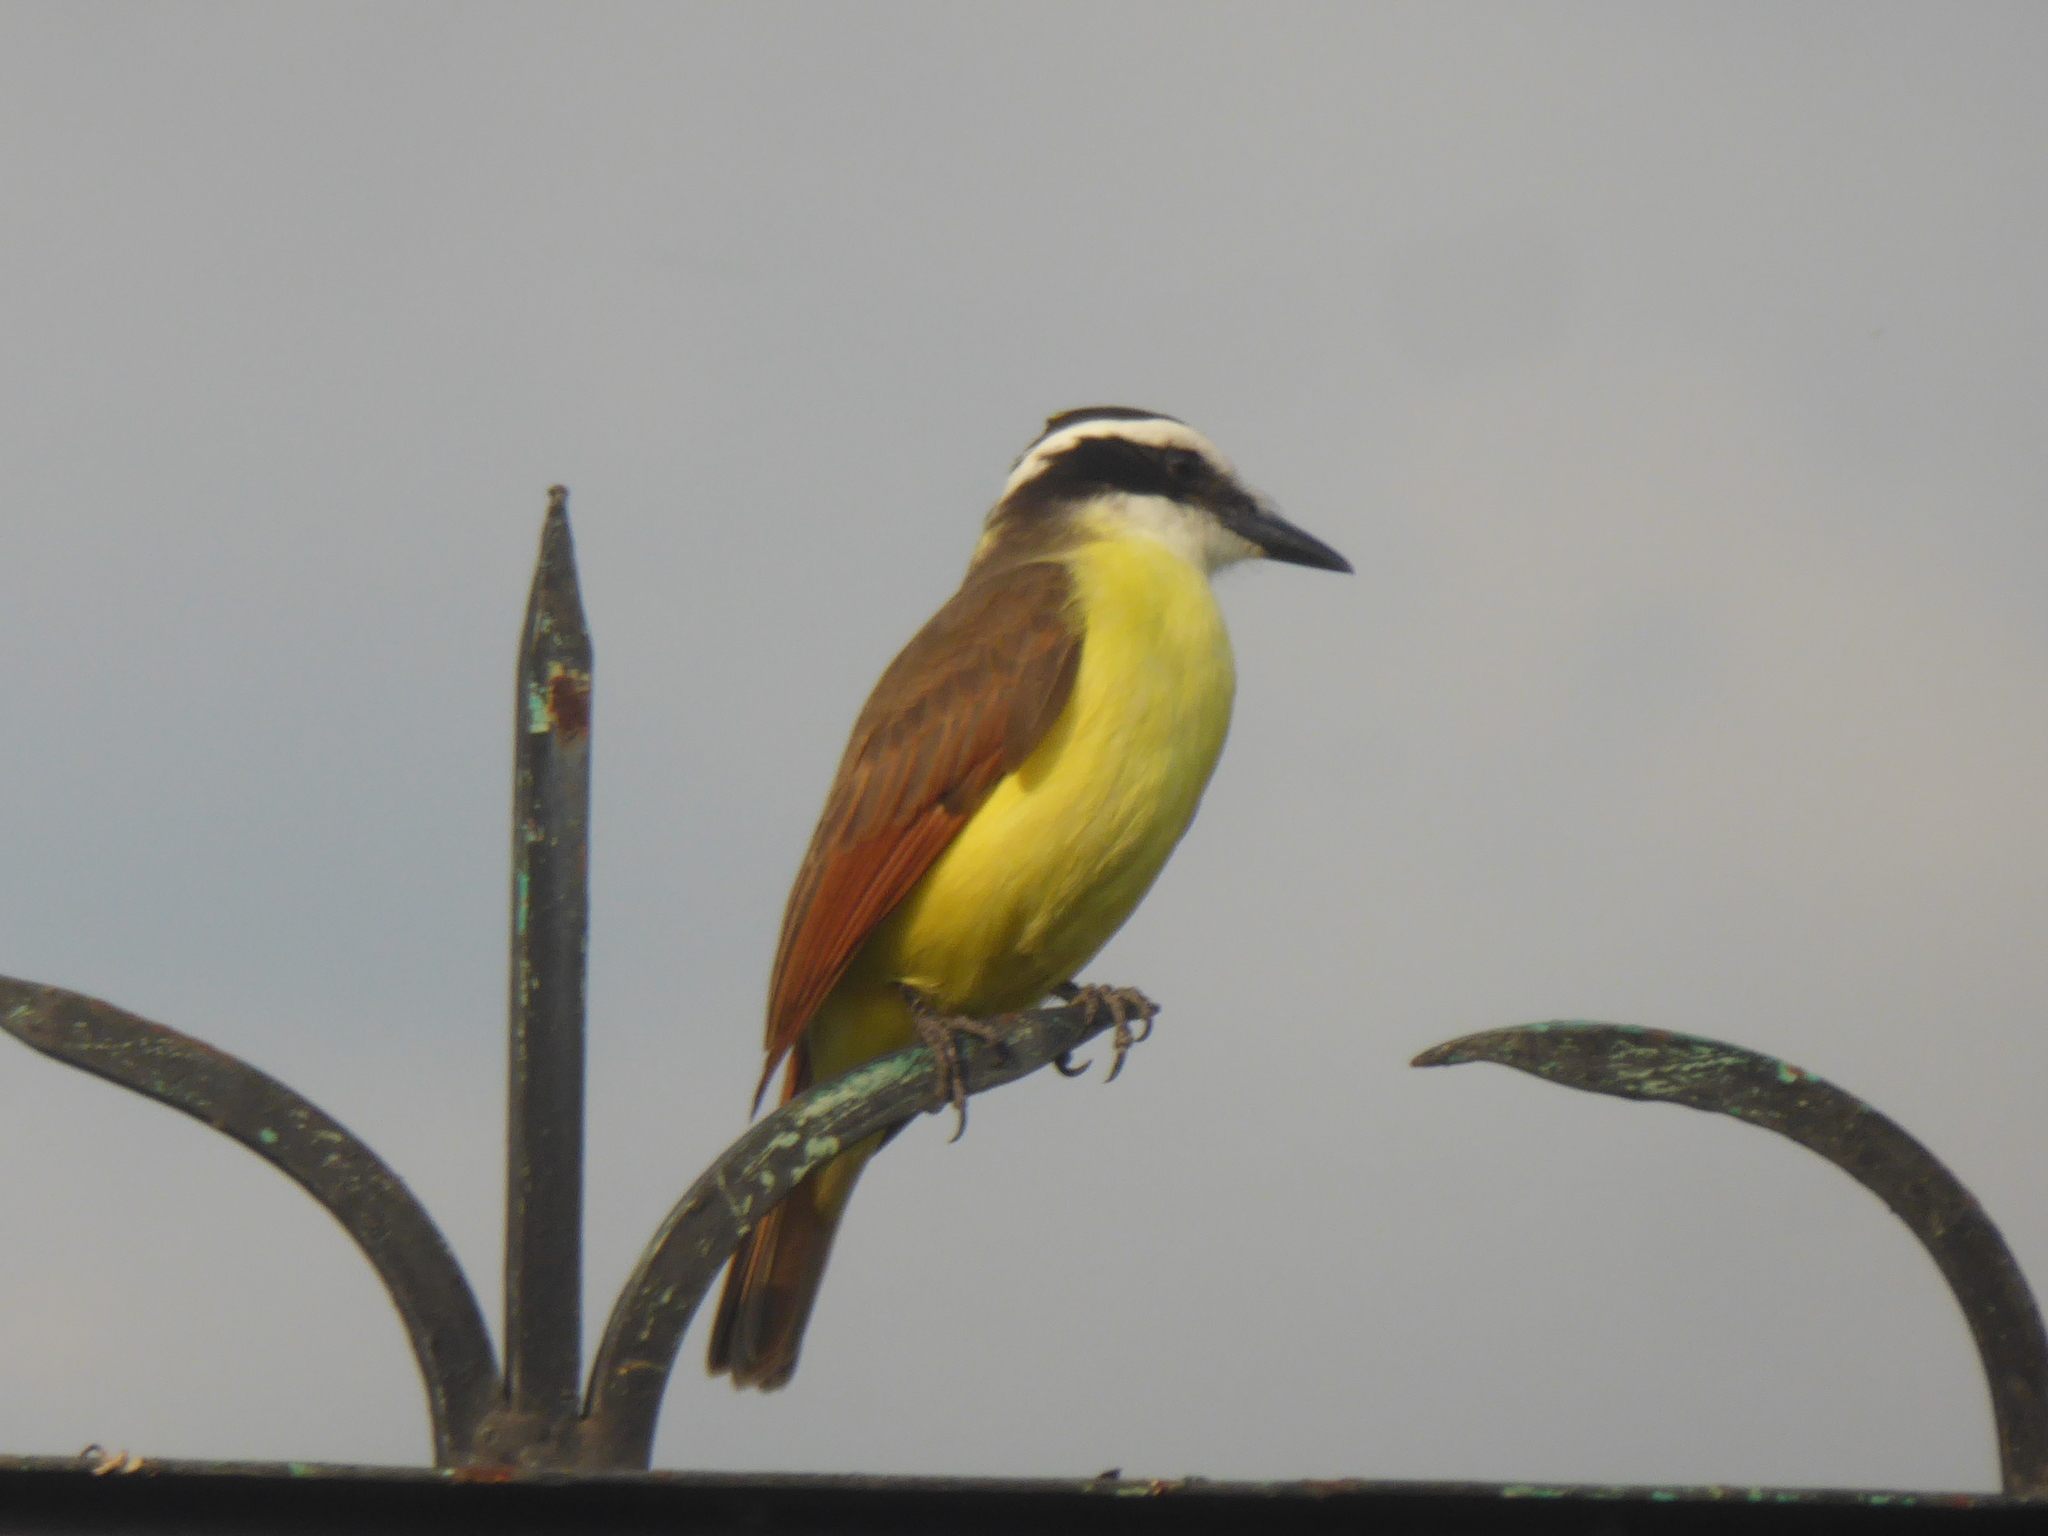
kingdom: Animalia
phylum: Chordata
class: Aves
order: Passeriformes
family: Tyrannidae
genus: Pitangus
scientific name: Pitangus sulphuratus
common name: Great kiskadee
